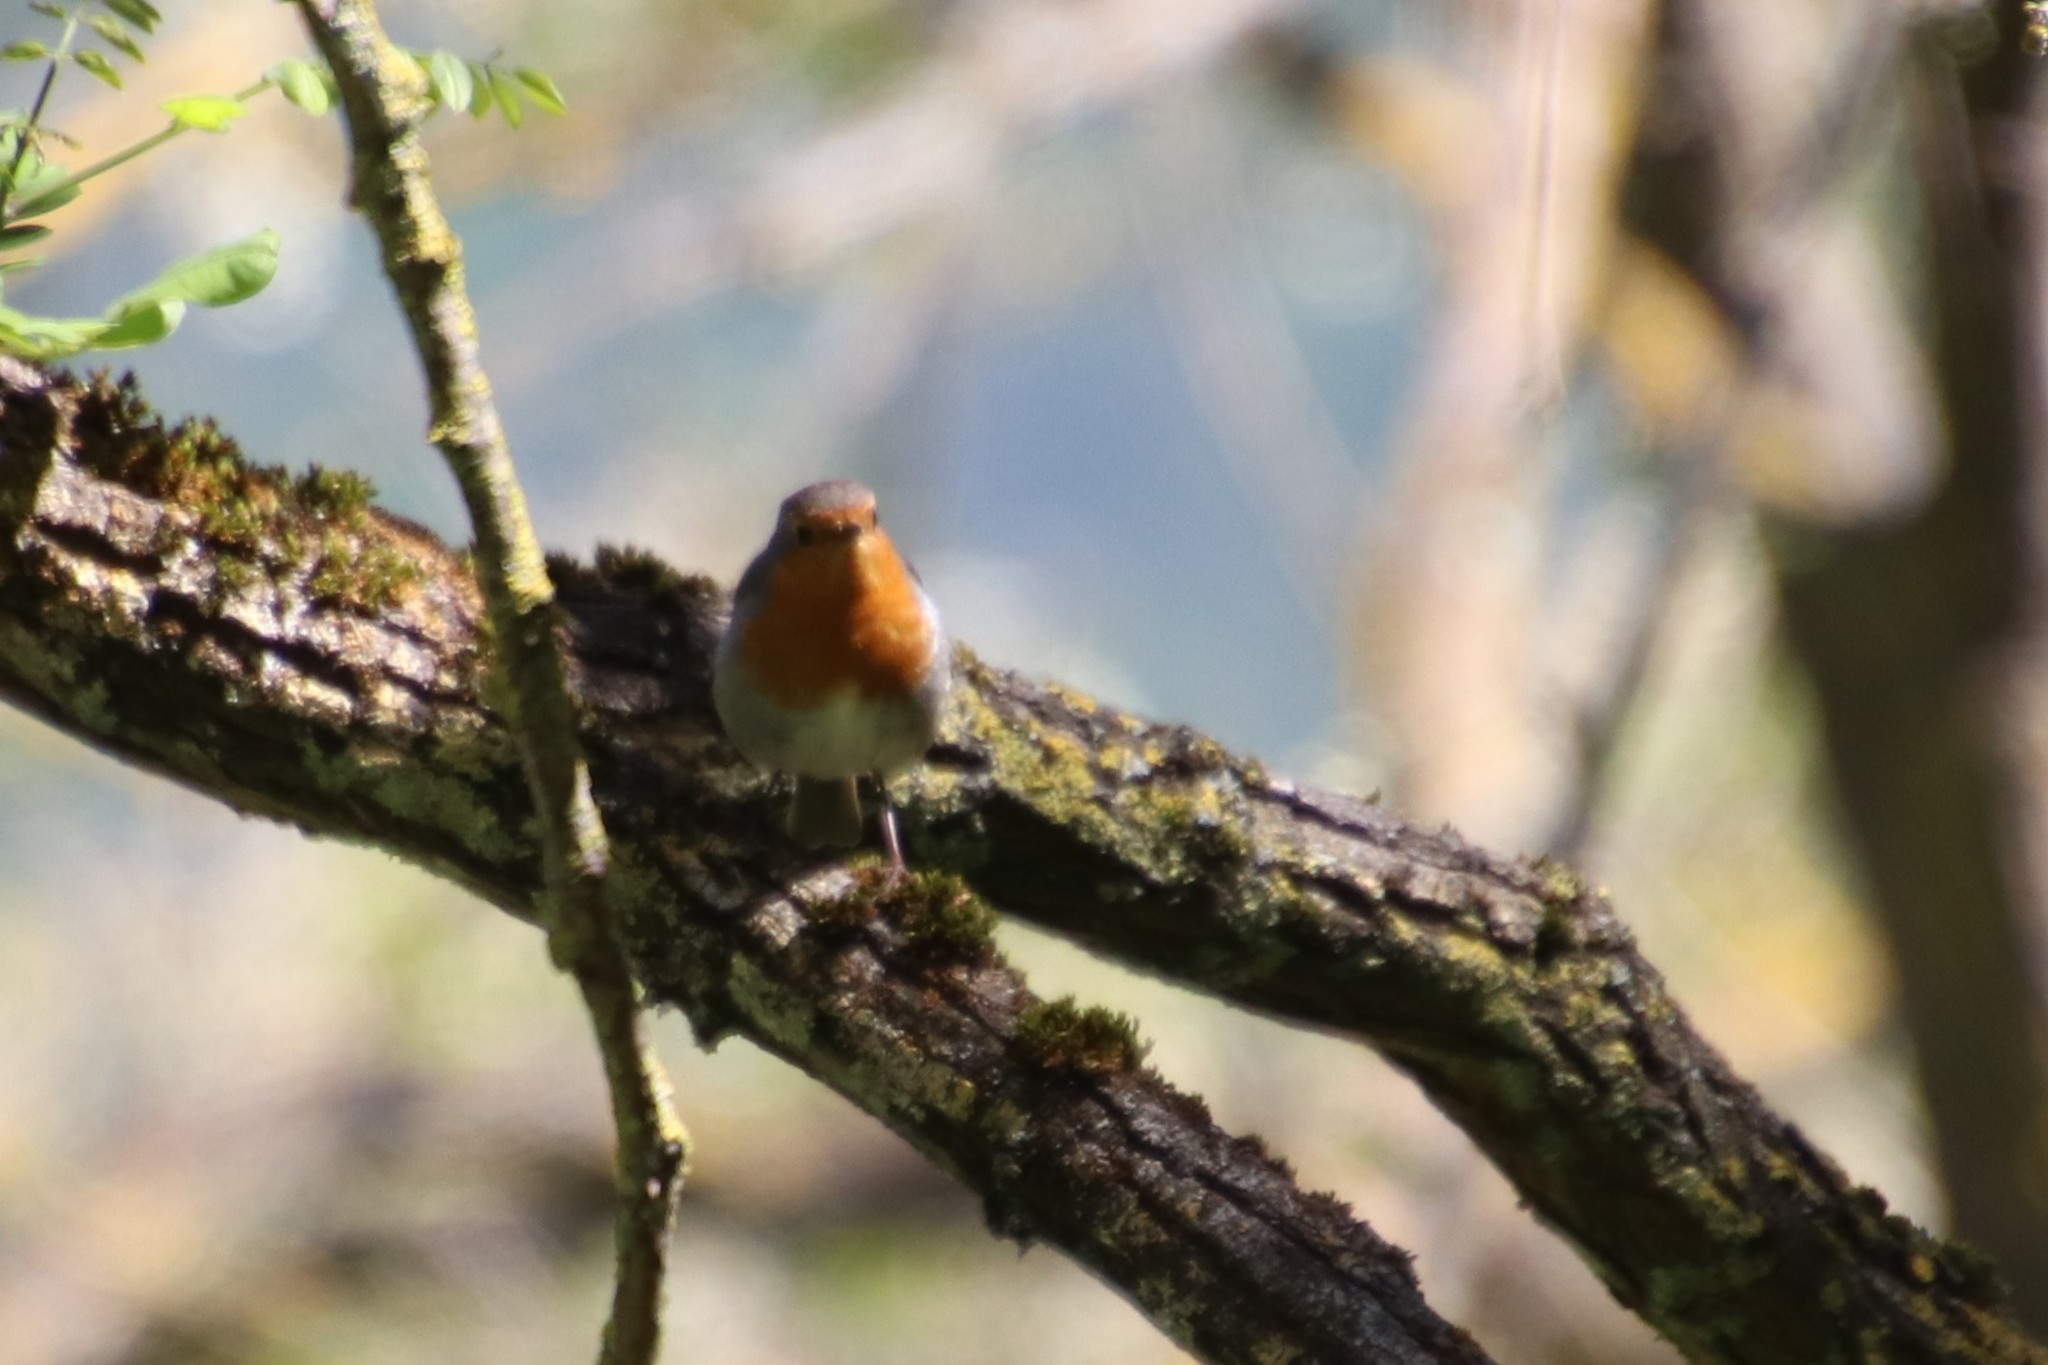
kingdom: Animalia
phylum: Chordata
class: Aves
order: Passeriformes
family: Muscicapidae
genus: Erithacus
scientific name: Erithacus rubecula
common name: European robin
